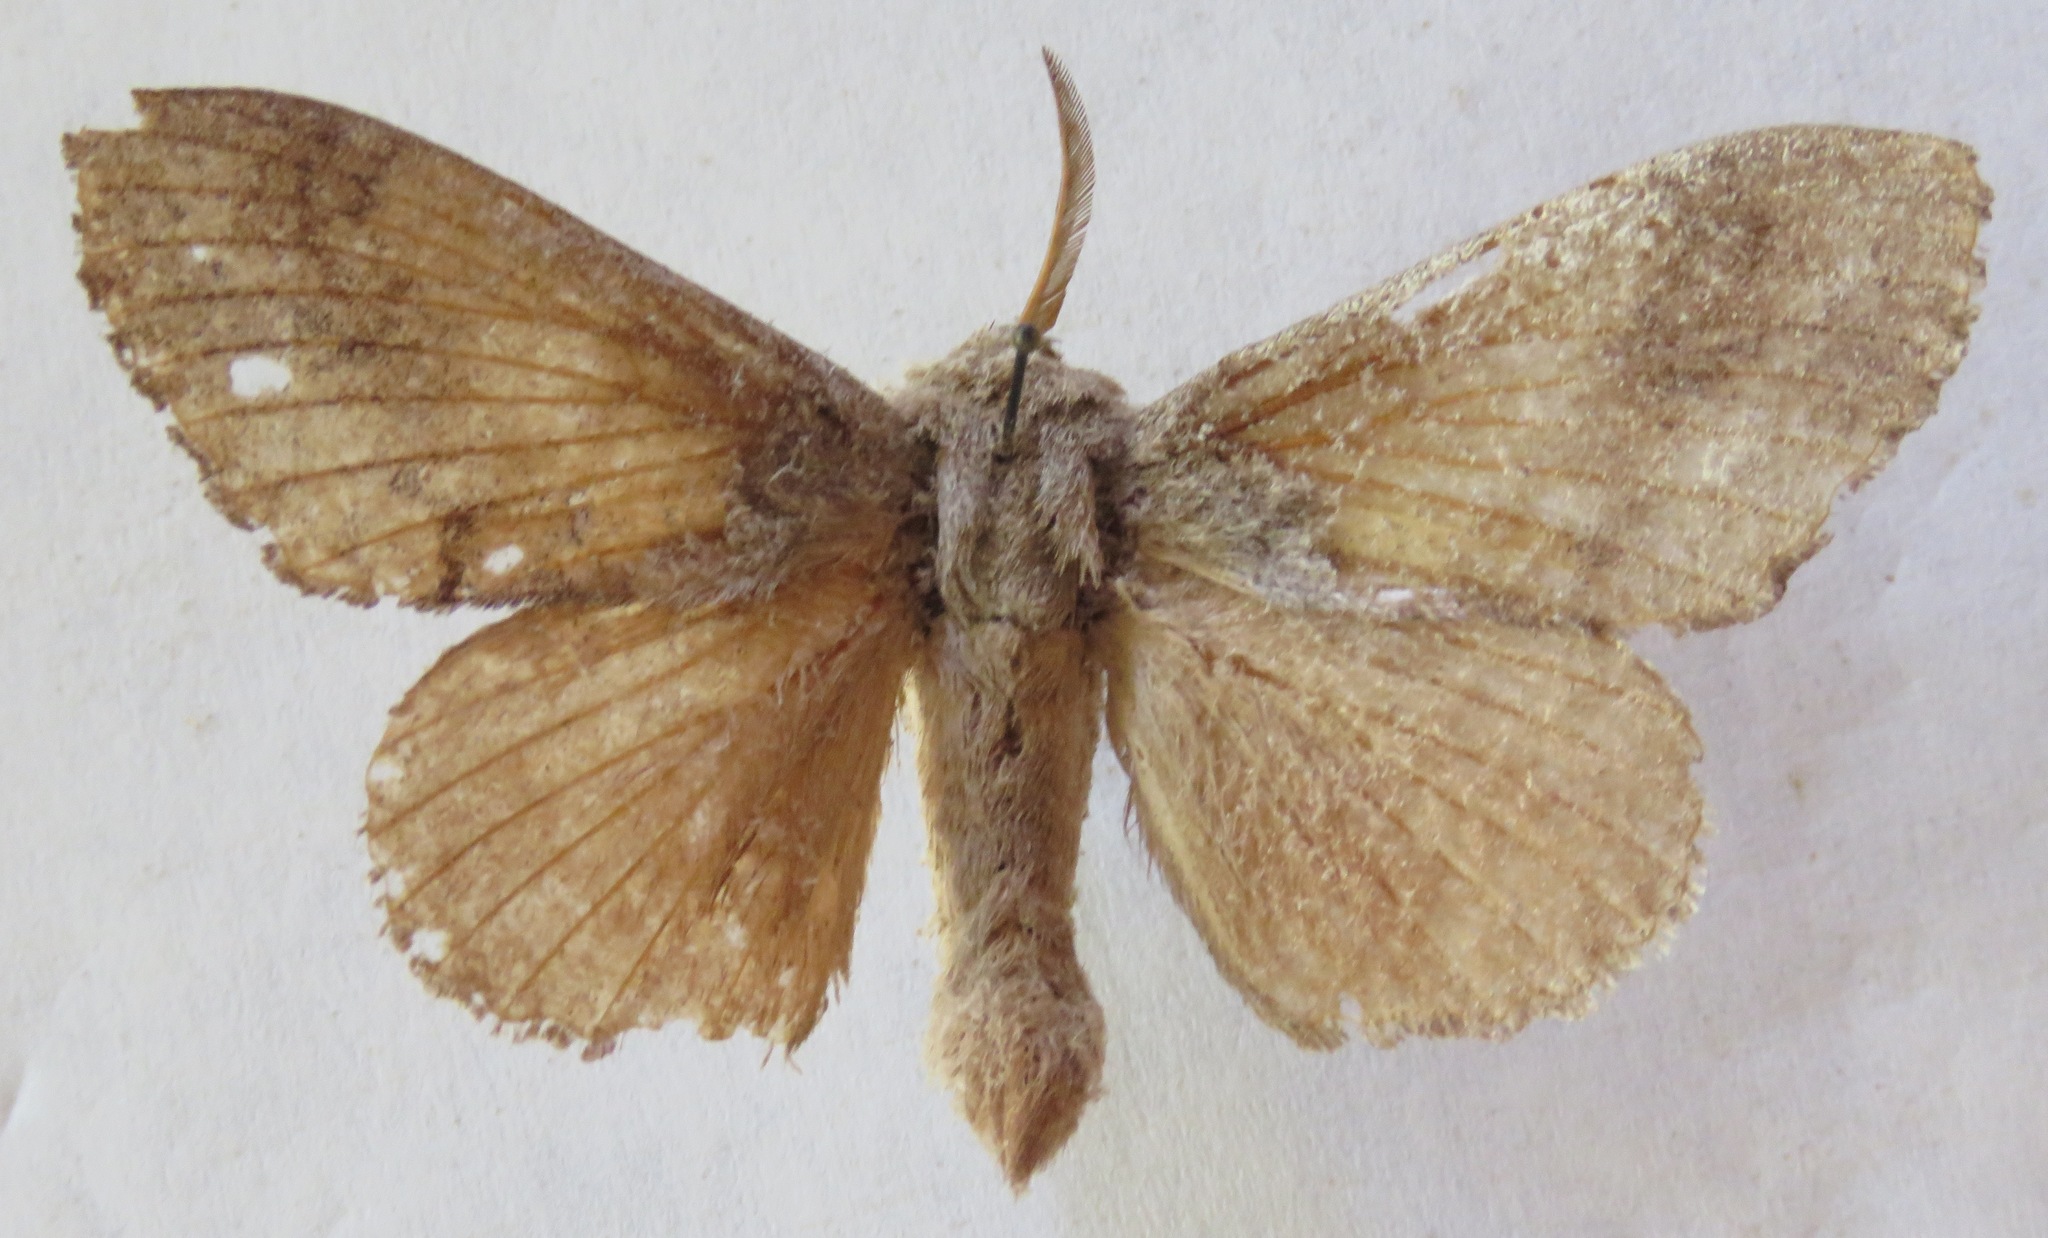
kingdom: Animalia
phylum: Arthropoda
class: Insecta
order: Lepidoptera
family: Lasiocampidae
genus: Dendrolimus
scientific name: Dendrolimus pini
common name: Pine-tree lappet
